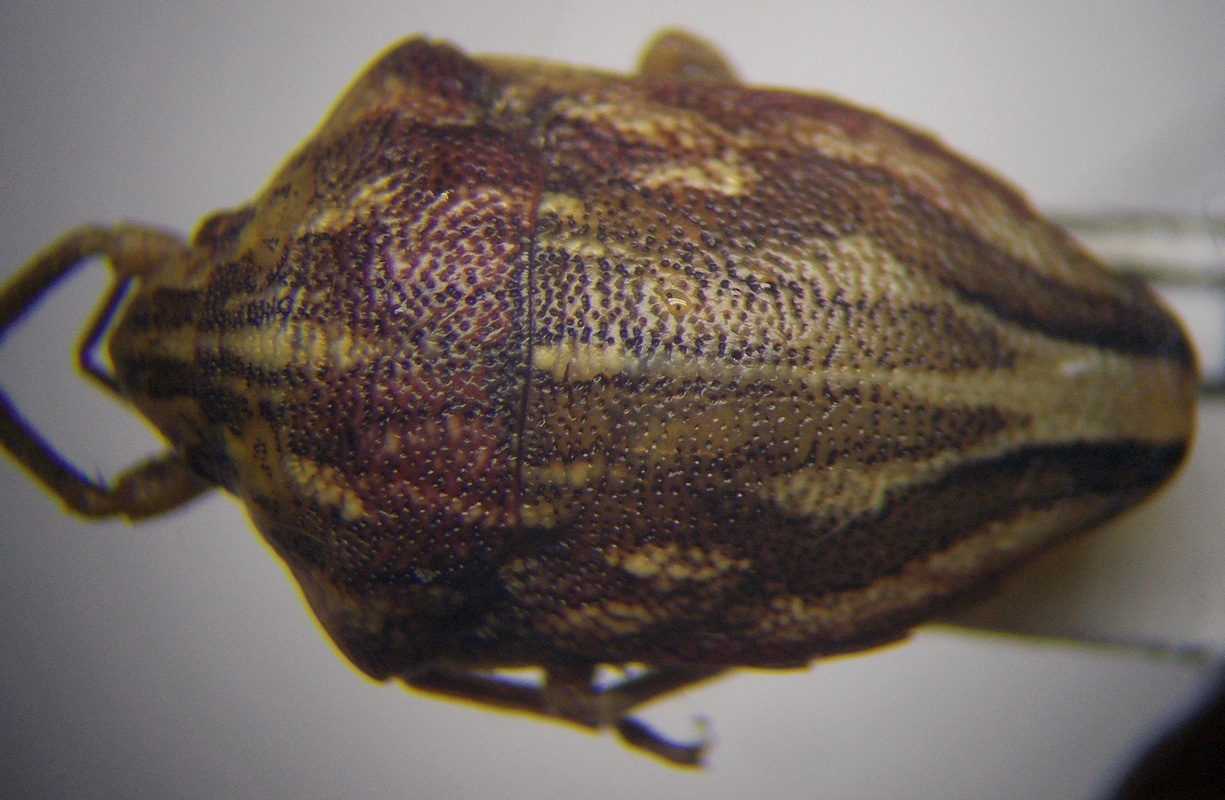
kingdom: Animalia
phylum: Arthropoda
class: Insecta
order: Hemiptera
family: Scutelleridae
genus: Odontotarsus
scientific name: Odontotarsus purpureolineatus
